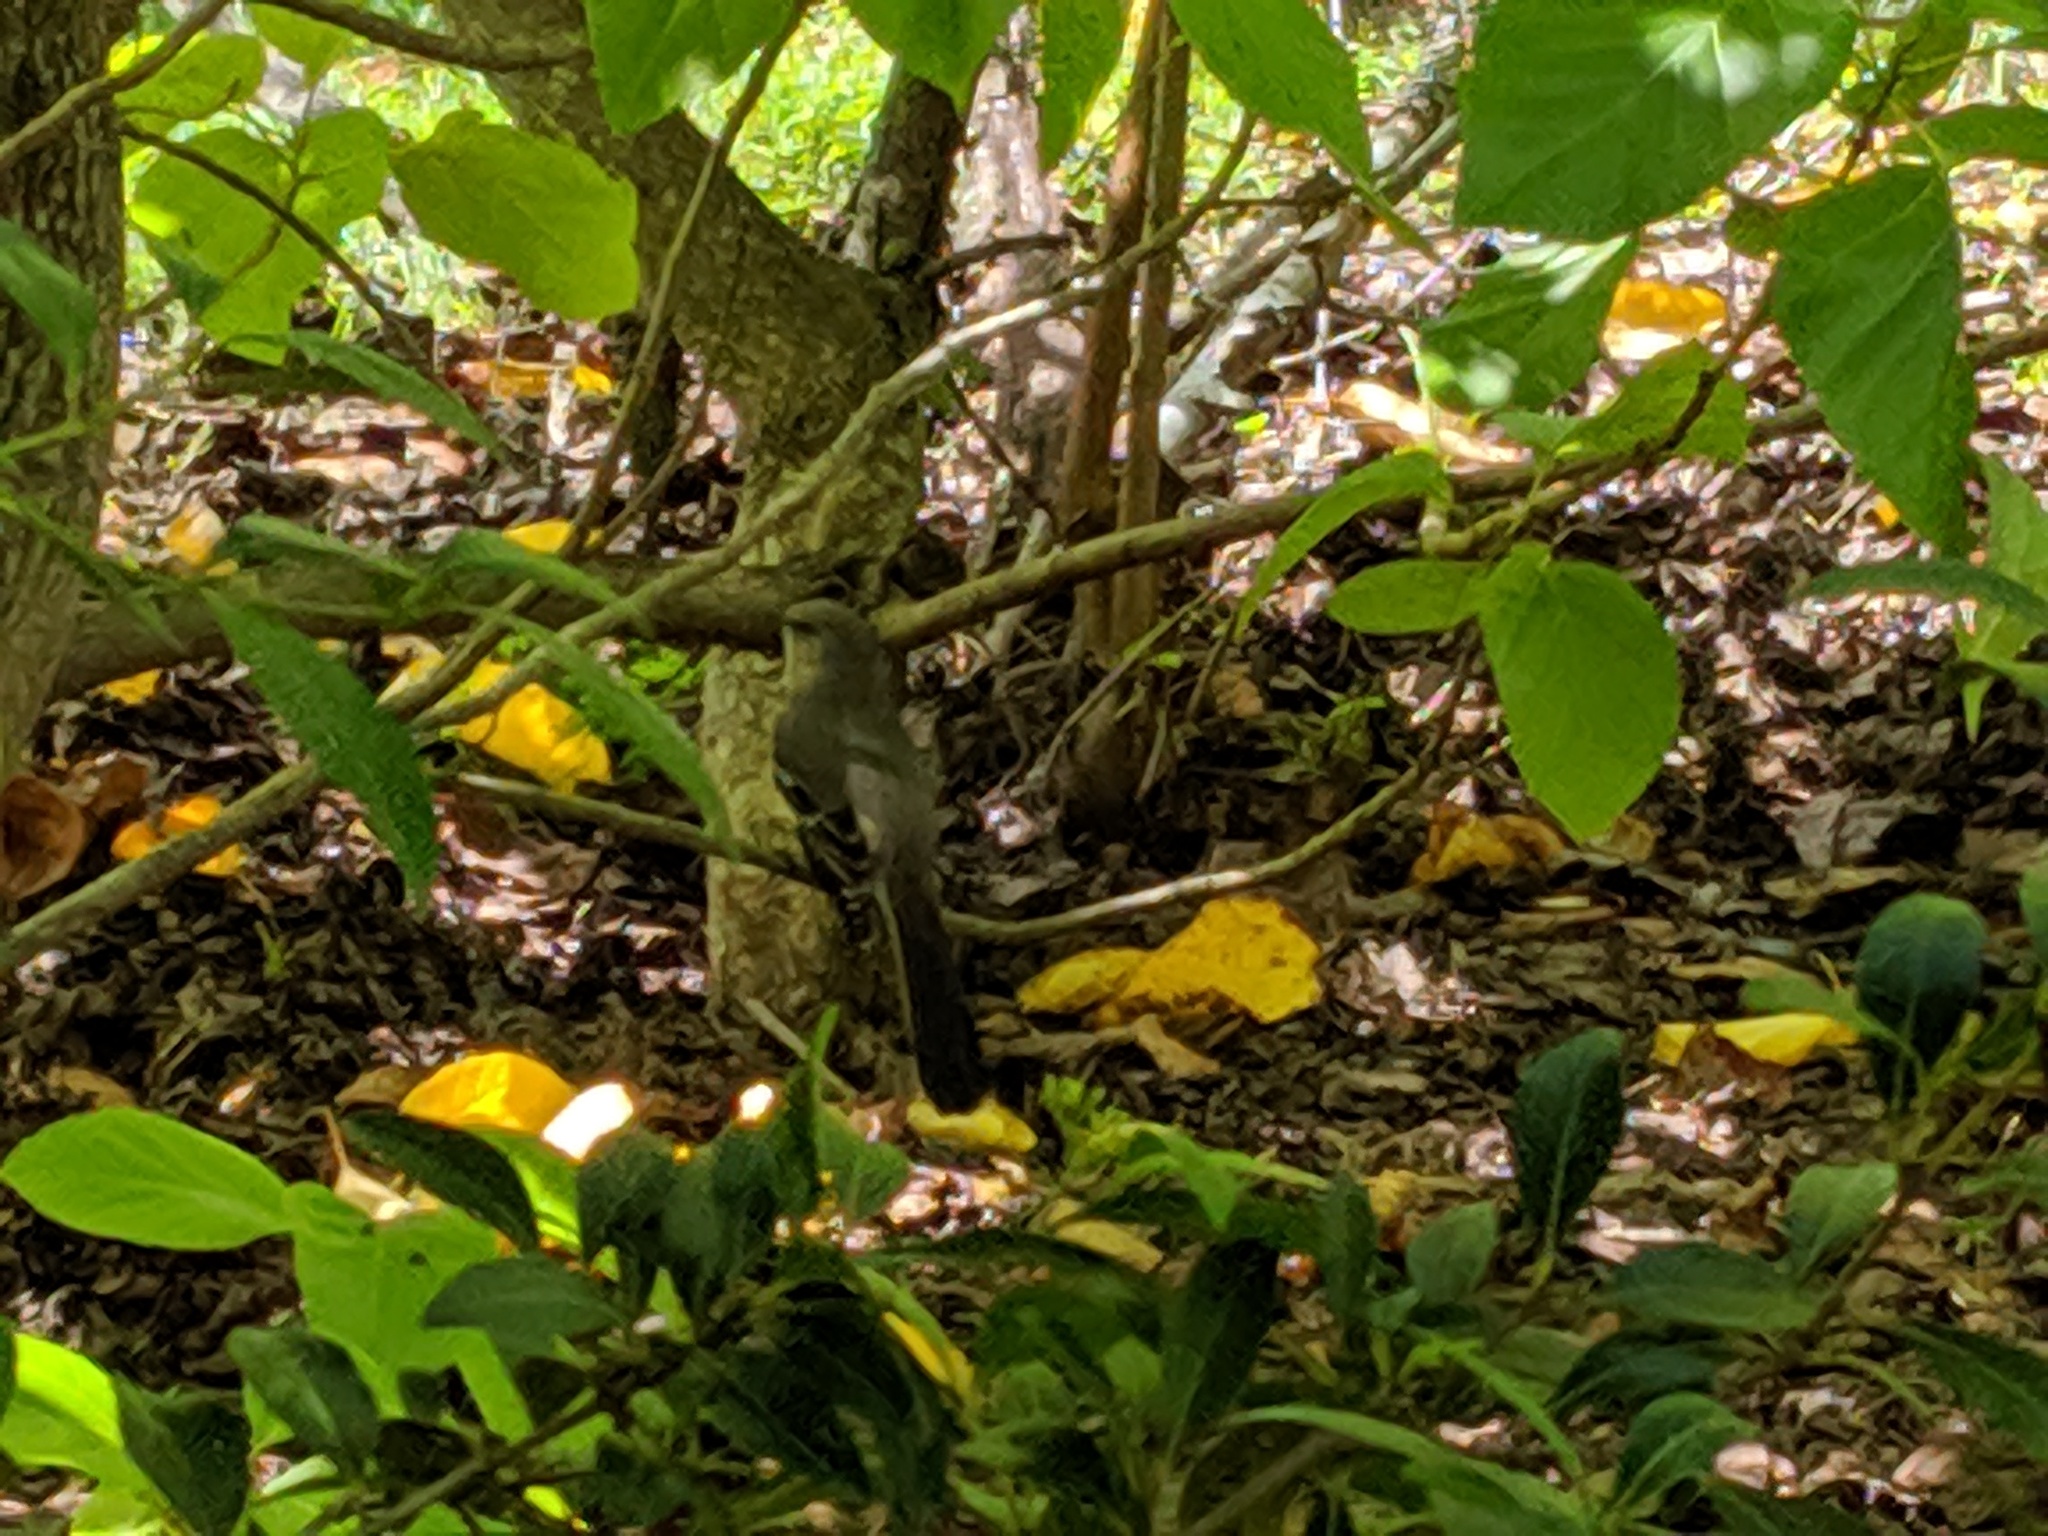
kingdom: Animalia
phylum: Chordata
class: Aves
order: Passeriformes
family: Mimidae
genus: Mimus
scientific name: Mimus polyglottos
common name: Northern mockingbird
